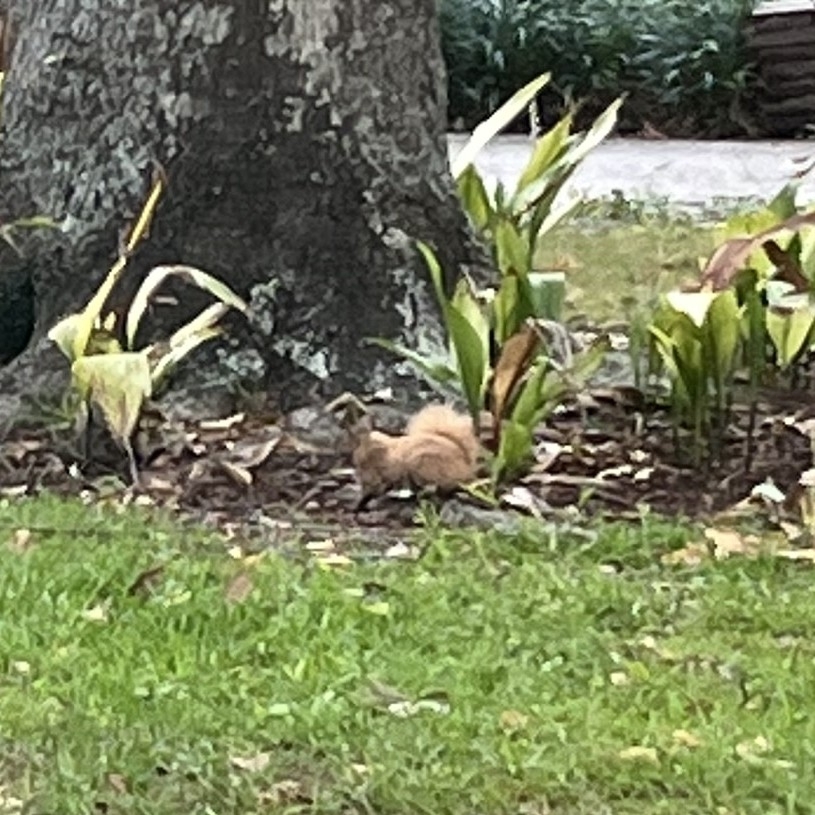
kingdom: Animalia
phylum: Chordata
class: Mammalia
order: Rodentia
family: Sciuridae
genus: Sciurus
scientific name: Sciurus carolinensis
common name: Eastern gray squirrel
